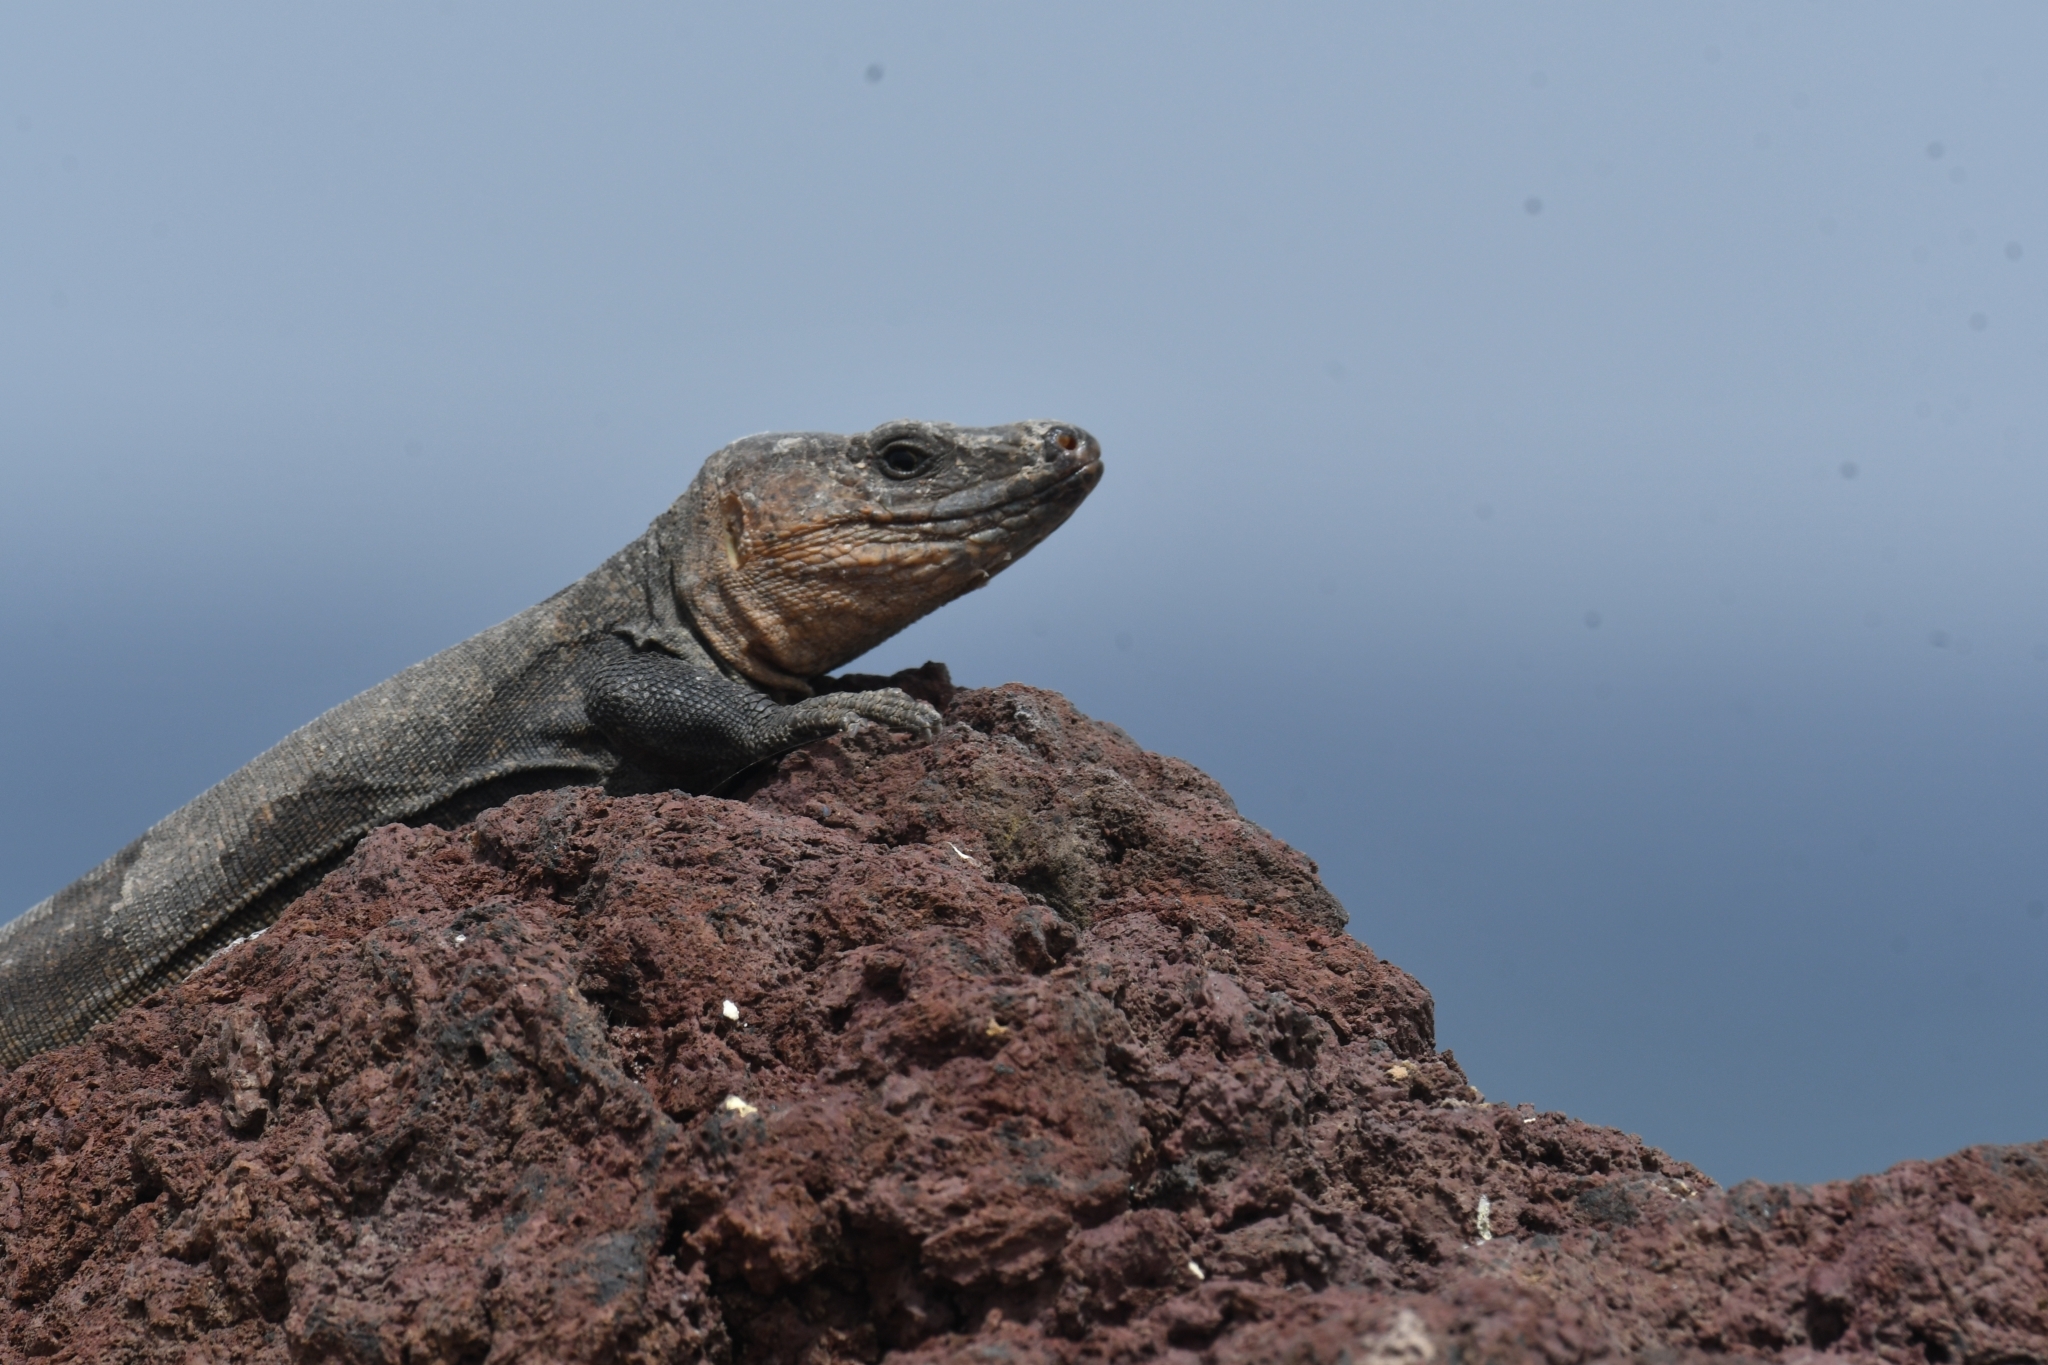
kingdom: Animalia
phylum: Chordata
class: Squamata
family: Lacertidae
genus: Gallotia
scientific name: Gallotia stehlini
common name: Gran canaria giant lizard
